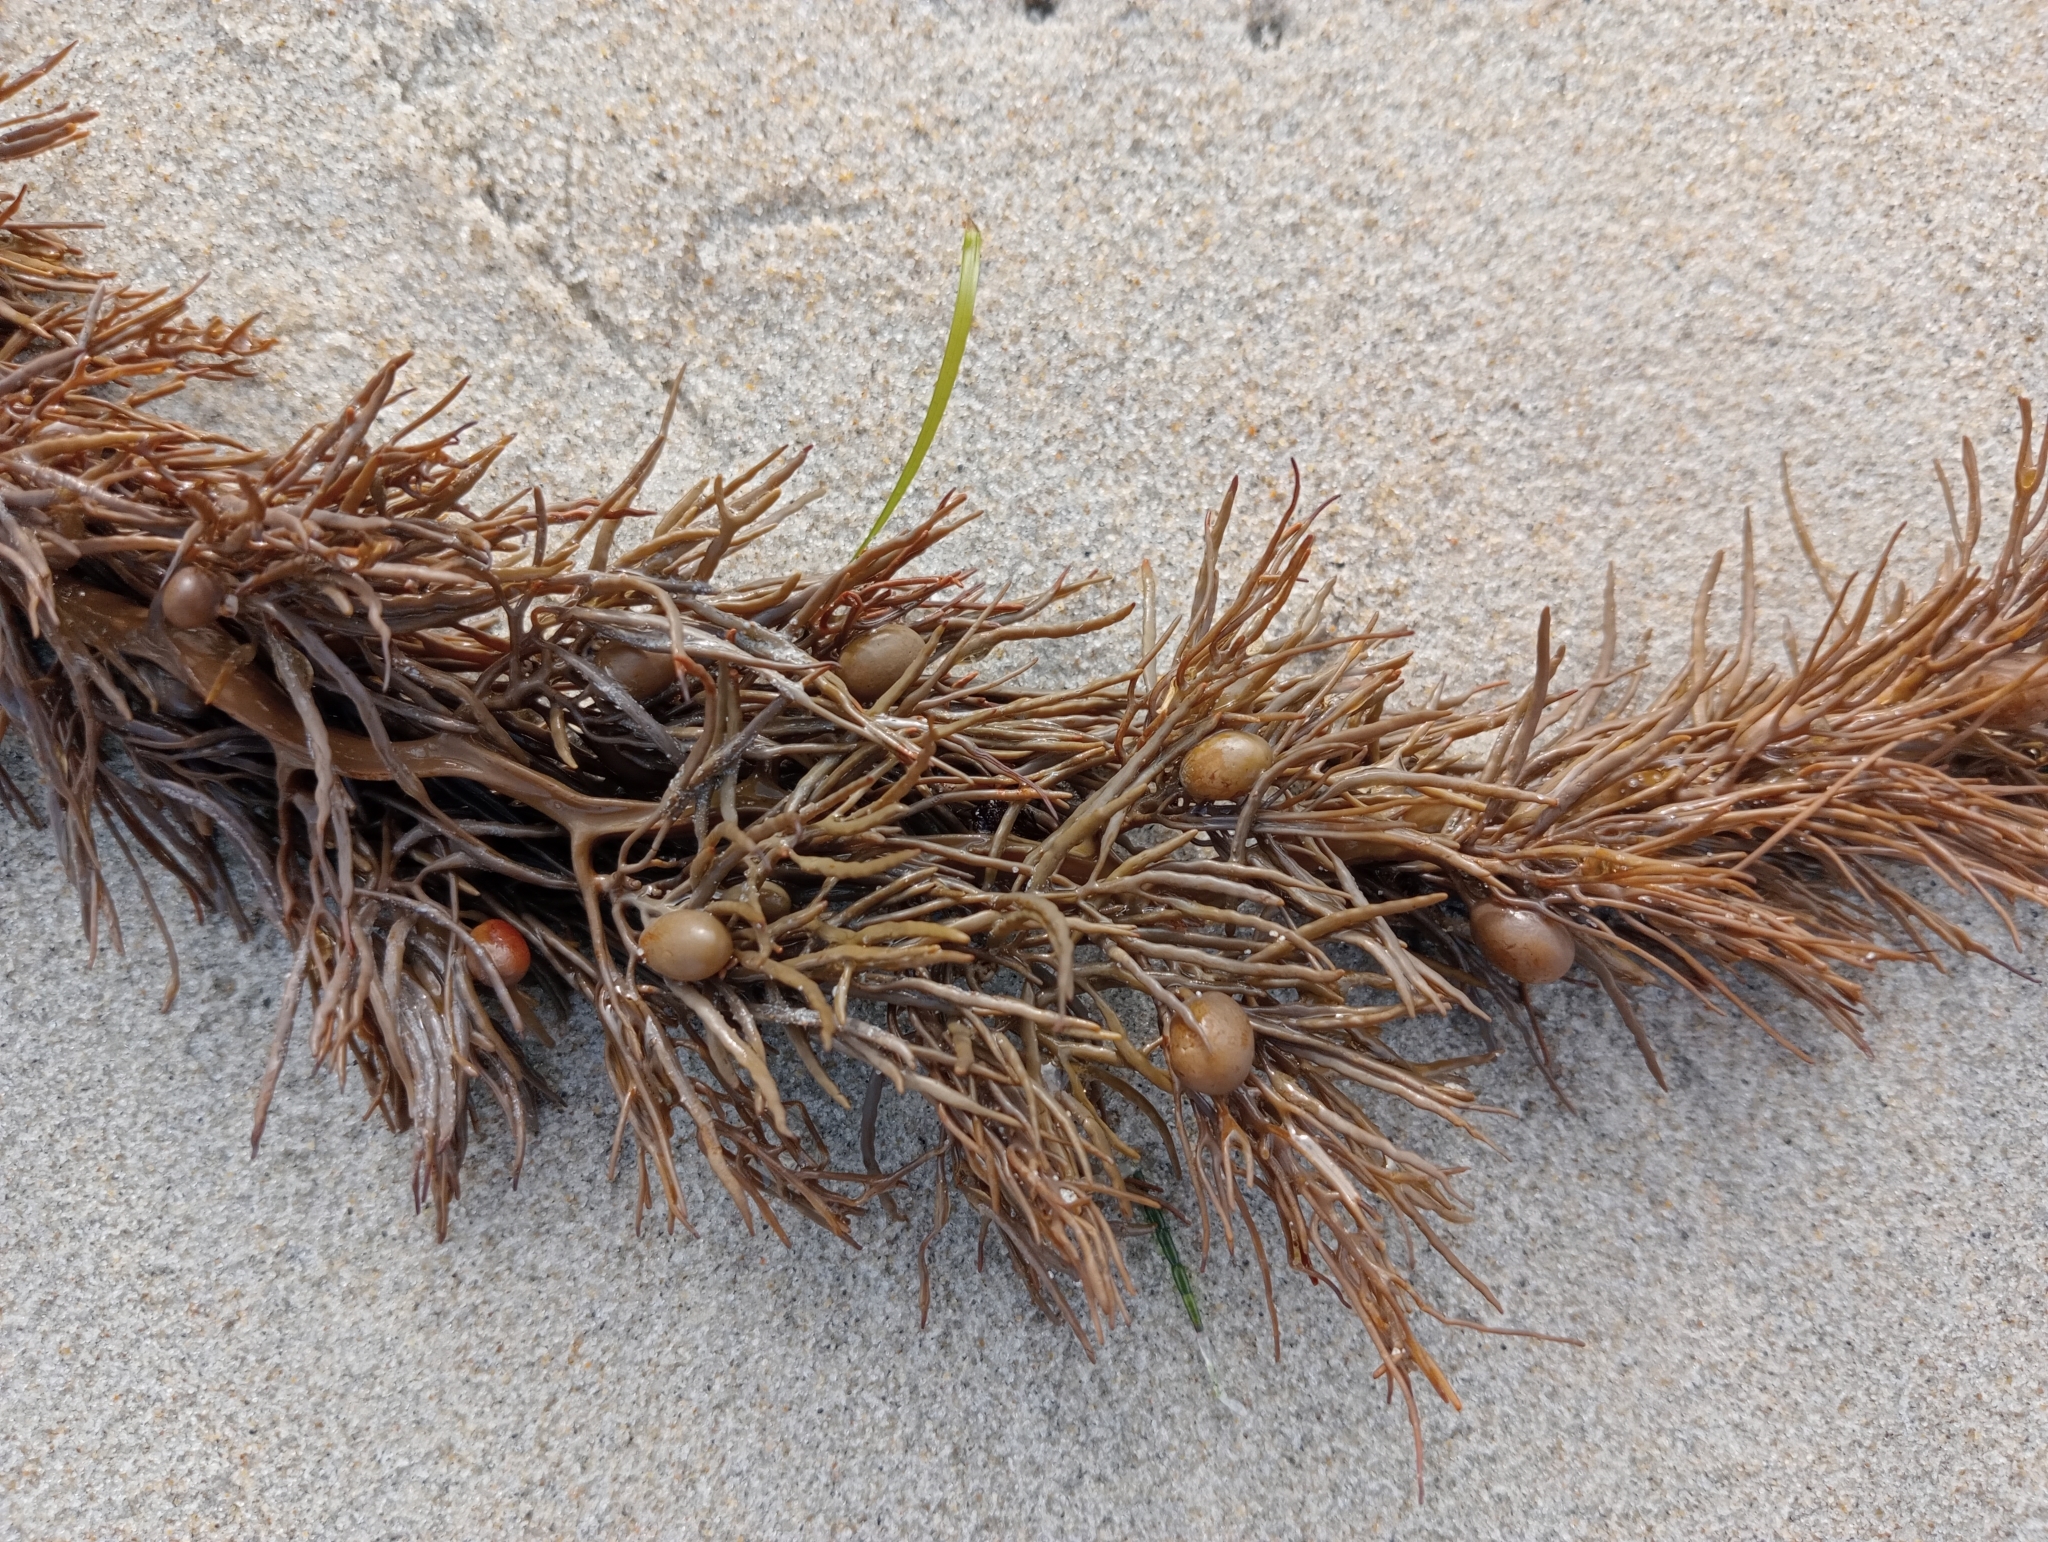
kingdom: Chromista
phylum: Ochrophyta
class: Phaeophyceae
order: Fucales
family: Sargassaceae
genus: Cystophora
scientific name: Cystophora retroflexa
